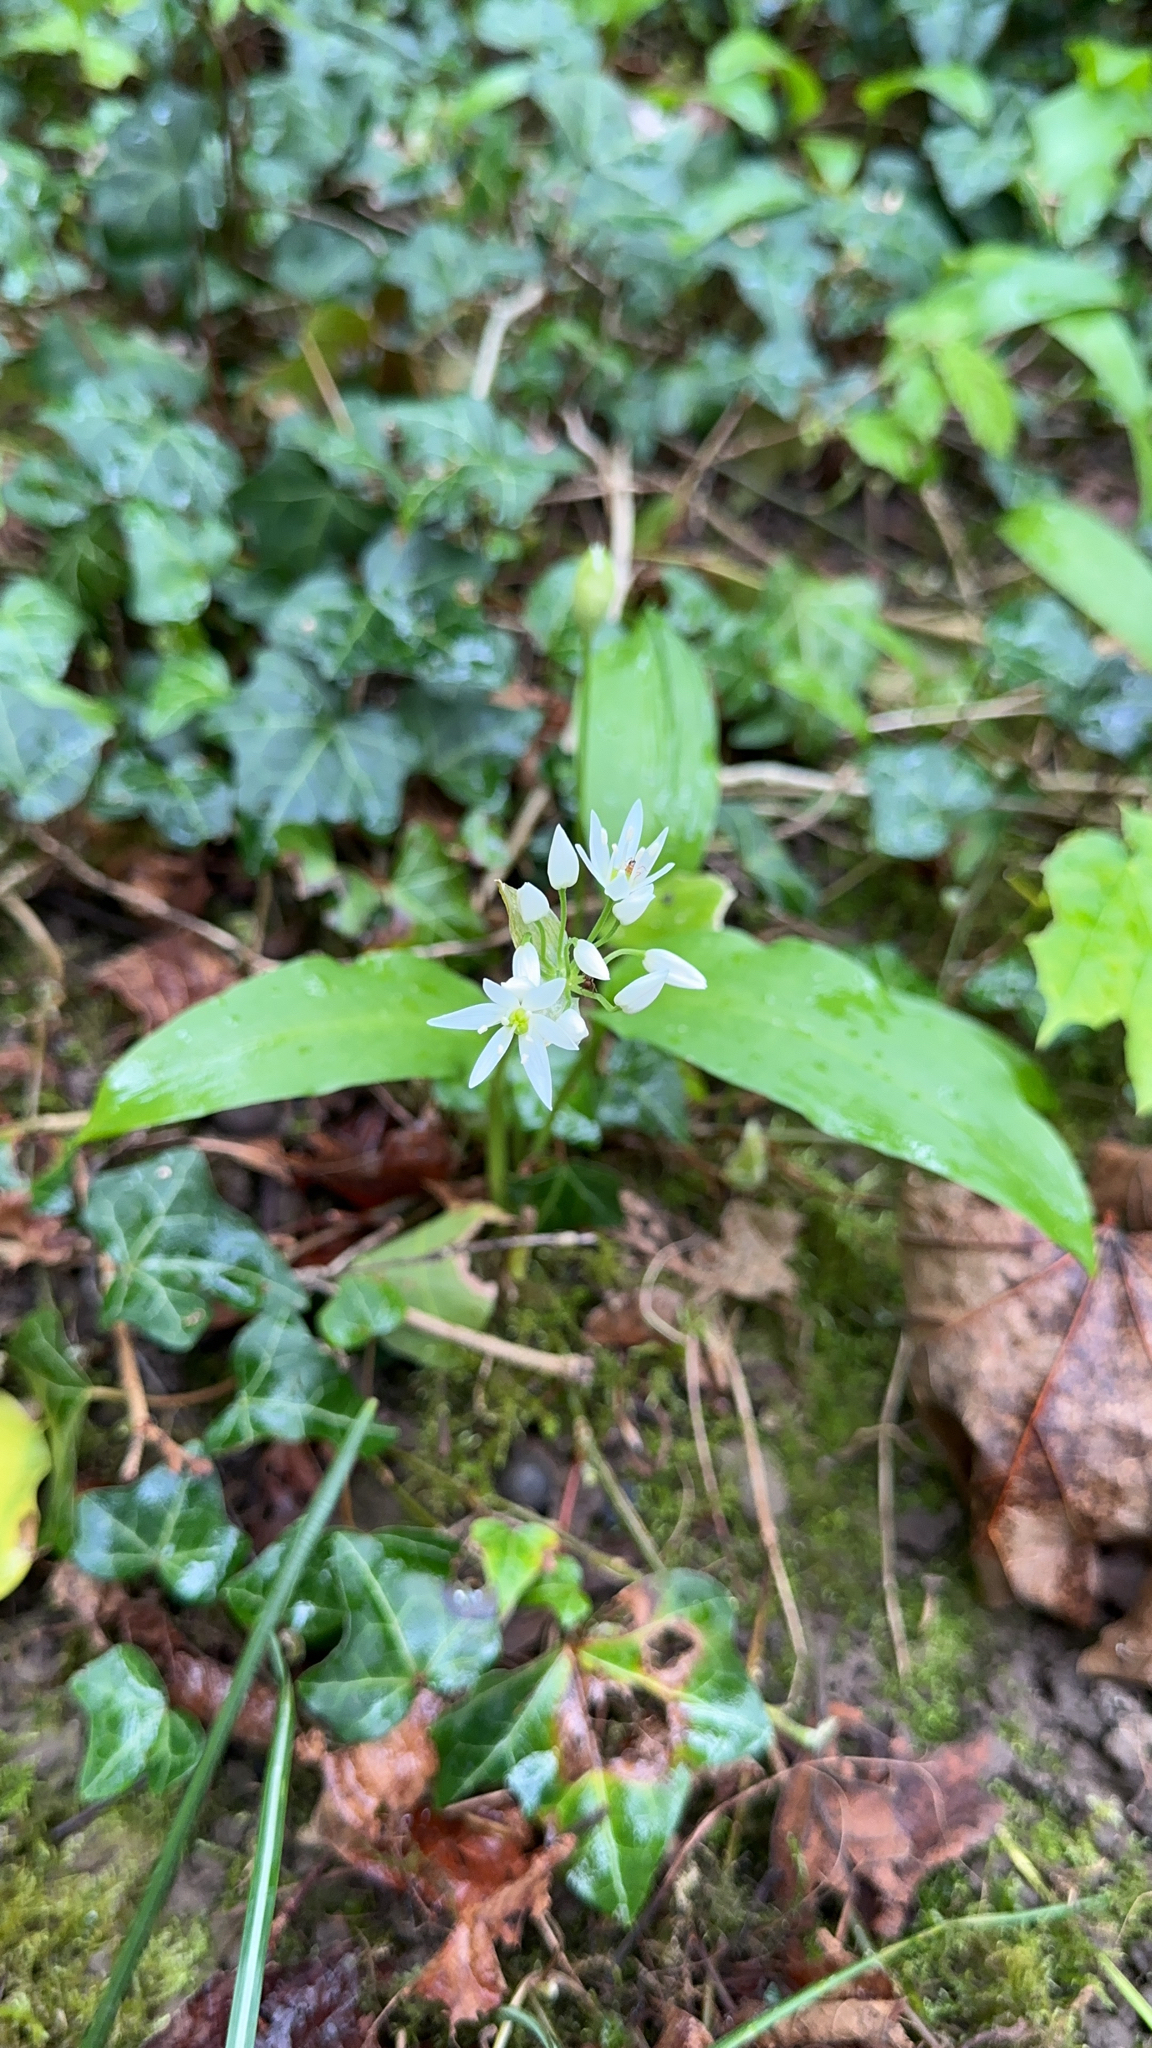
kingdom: Plantae
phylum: Tracheophyta
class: Liliopsida
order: Asparagales
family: Amaryllidaceae
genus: Allium
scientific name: Allium ursinum
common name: Ramsons
